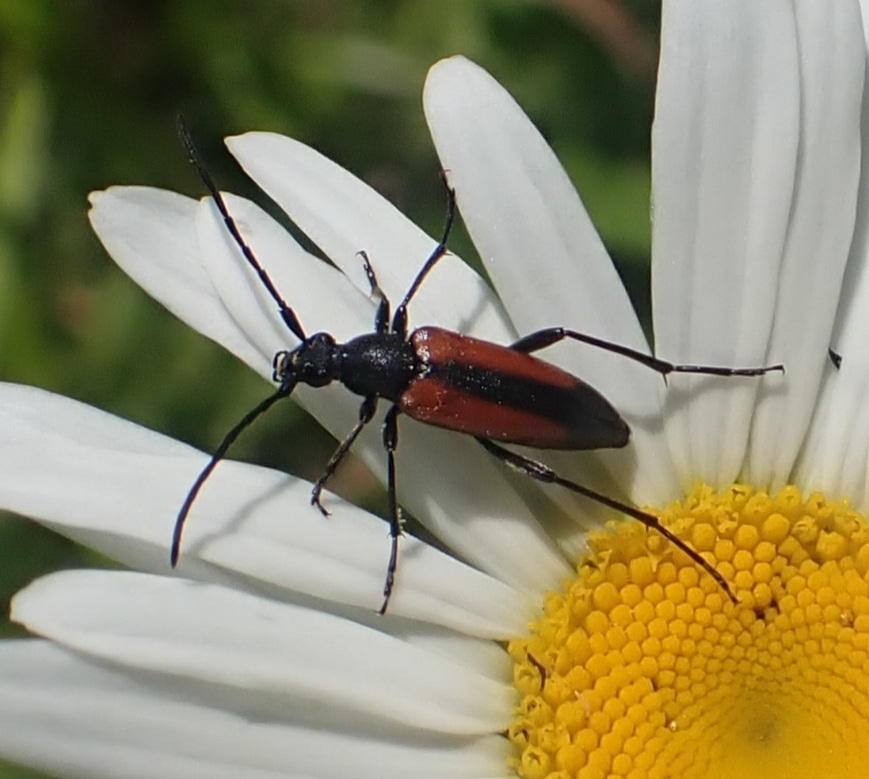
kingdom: Animalia
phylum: Arthropoda
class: Insecta
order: Coleoptera
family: Cerambycidae
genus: Stenurella
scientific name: Stenurella melanura
